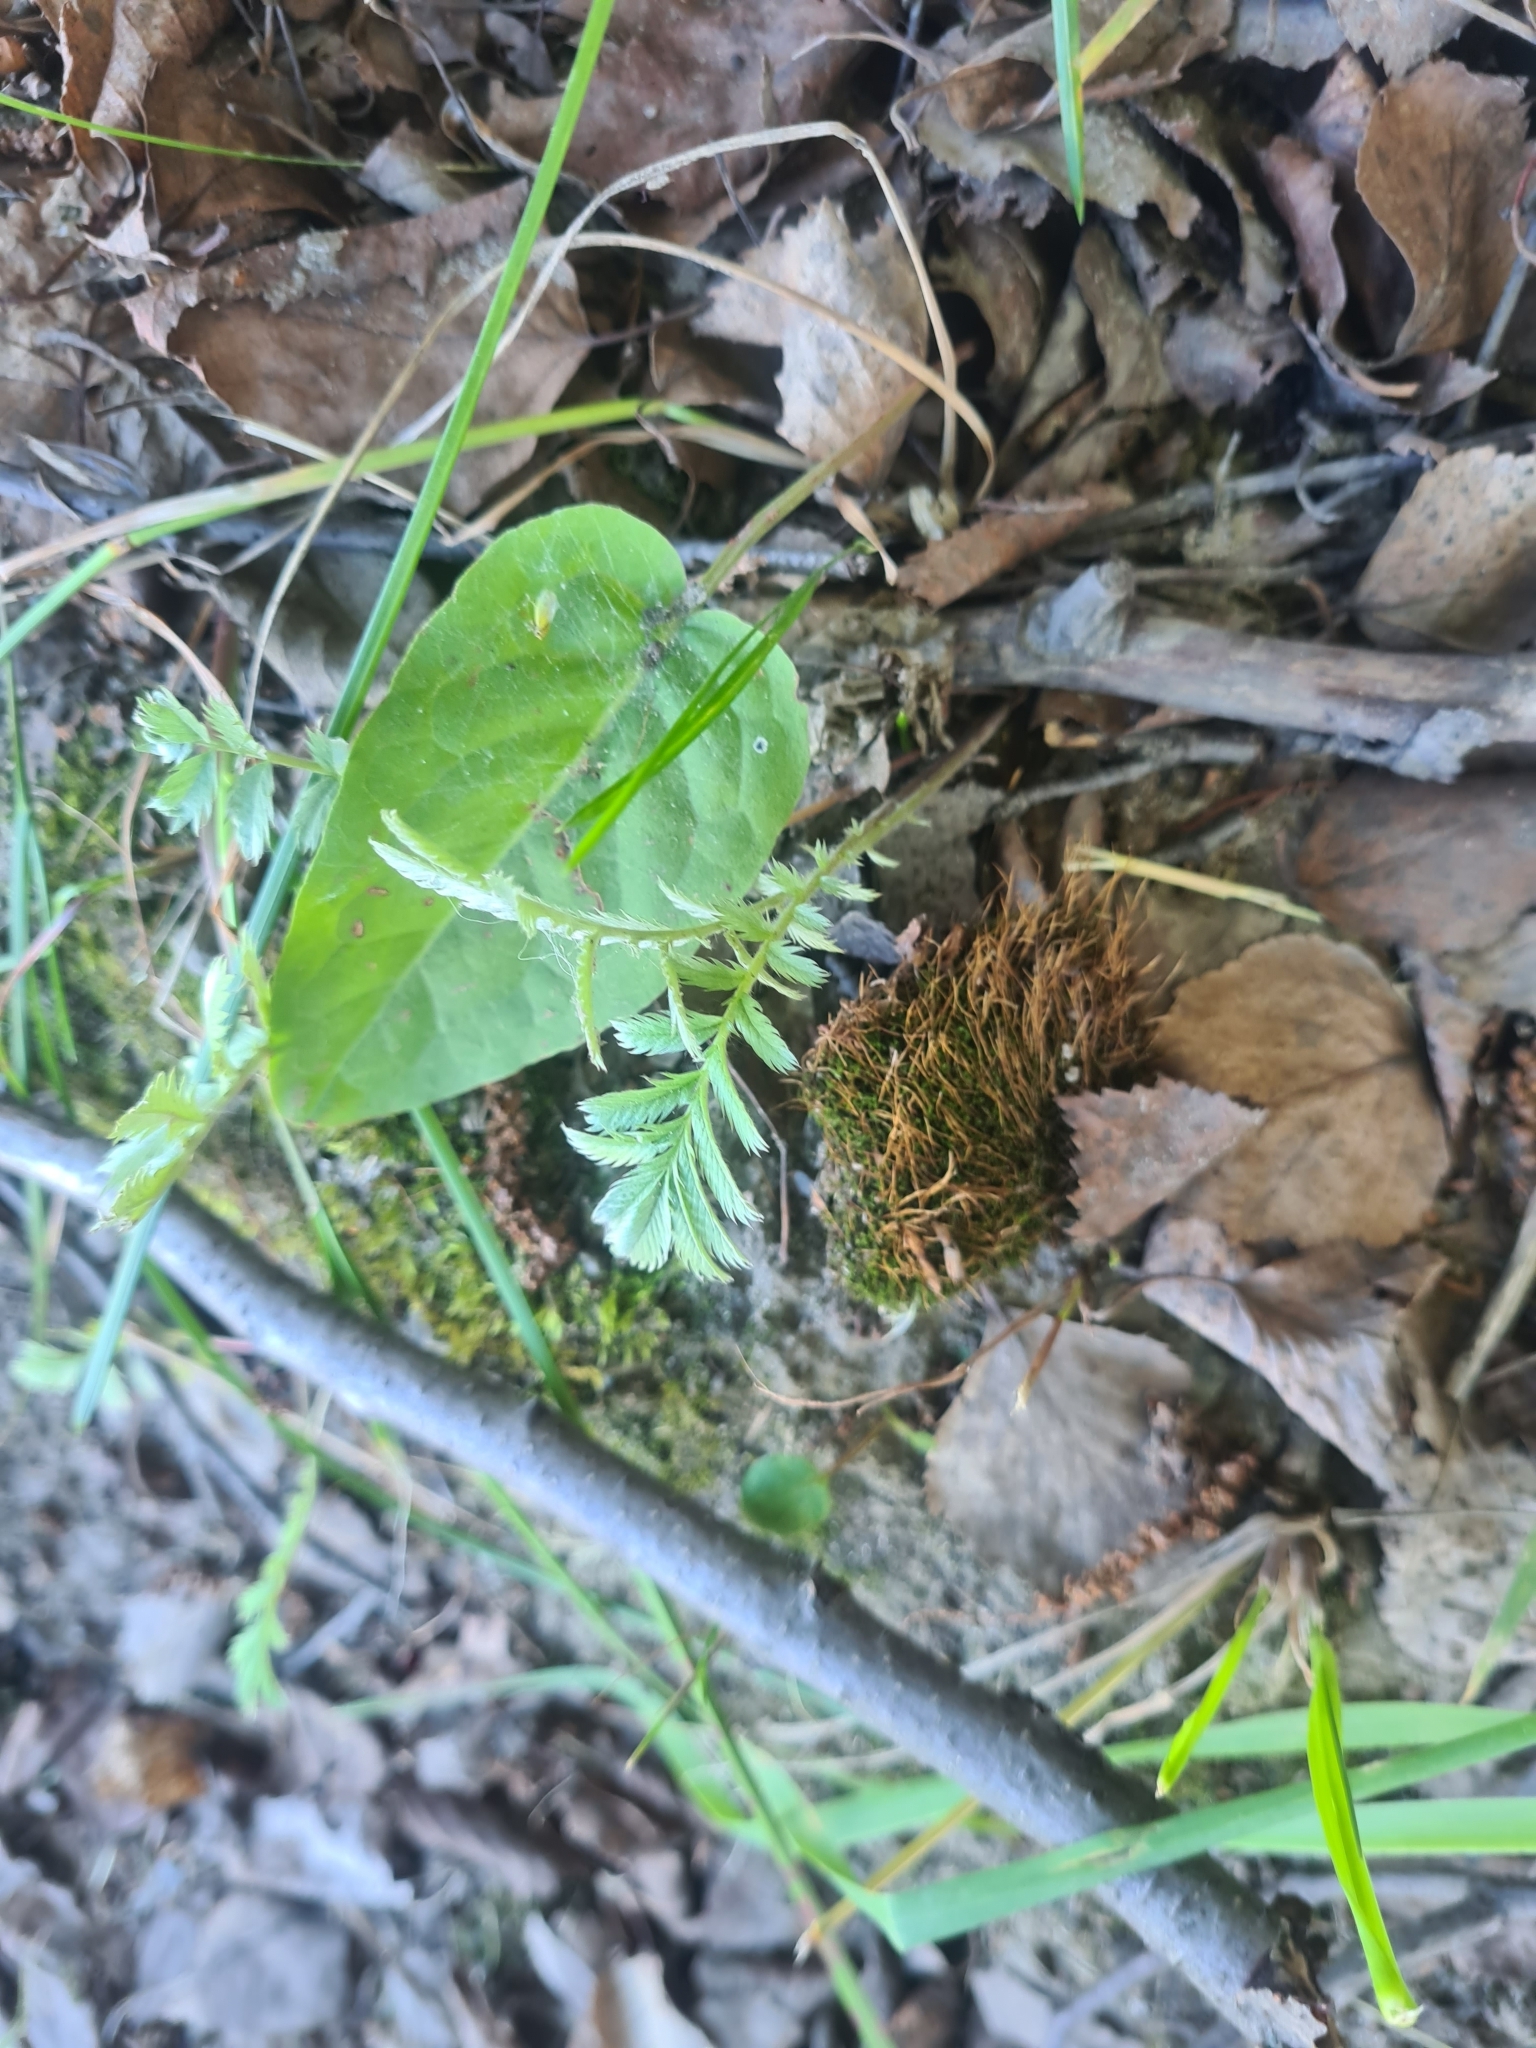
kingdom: Plantae
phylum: Tracheophyta
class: Magnoliopsida
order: Rosales
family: Rosaceae
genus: Argentina
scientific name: Argentina anserina
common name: Common silverweed
